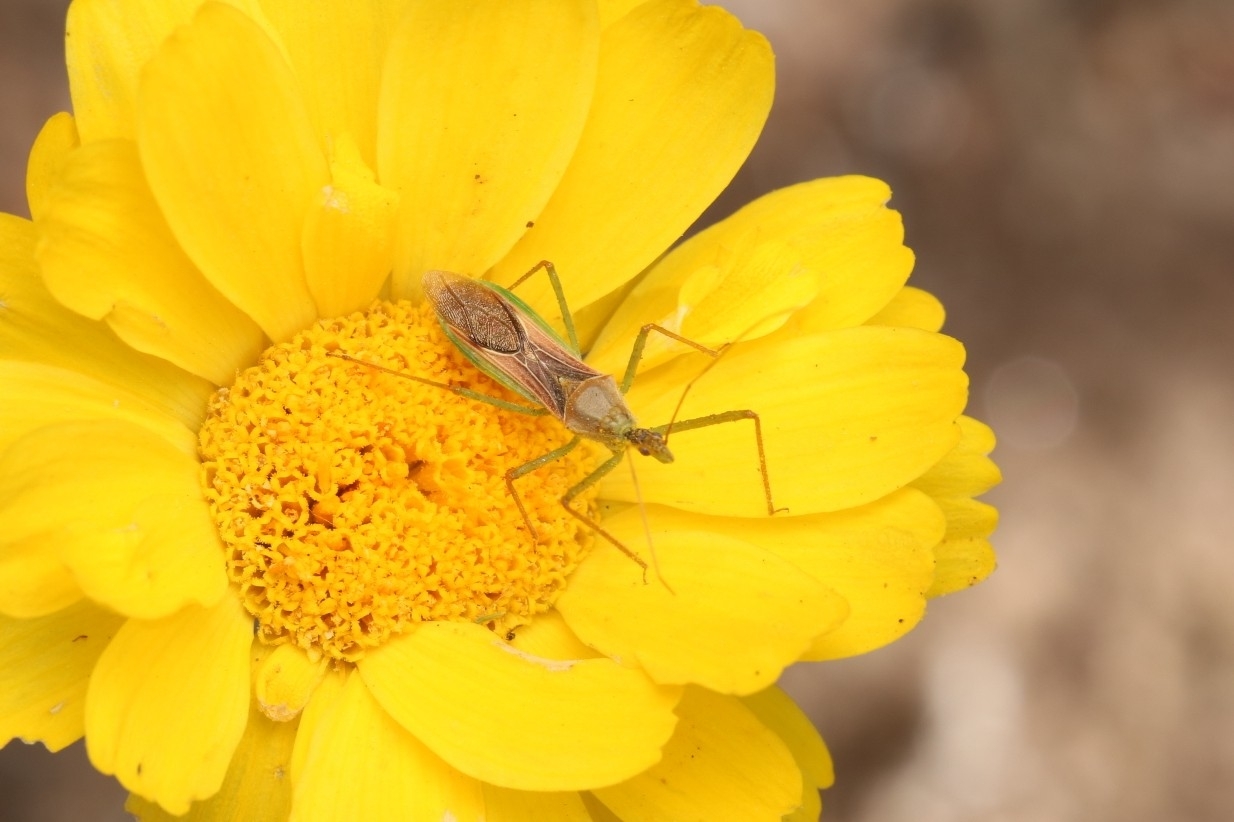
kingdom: Animalia
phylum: Arthropoda
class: Insecta
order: Hemiptera
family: Reduviidae
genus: Zelus
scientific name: Zelus renardii
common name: Assassin bug
